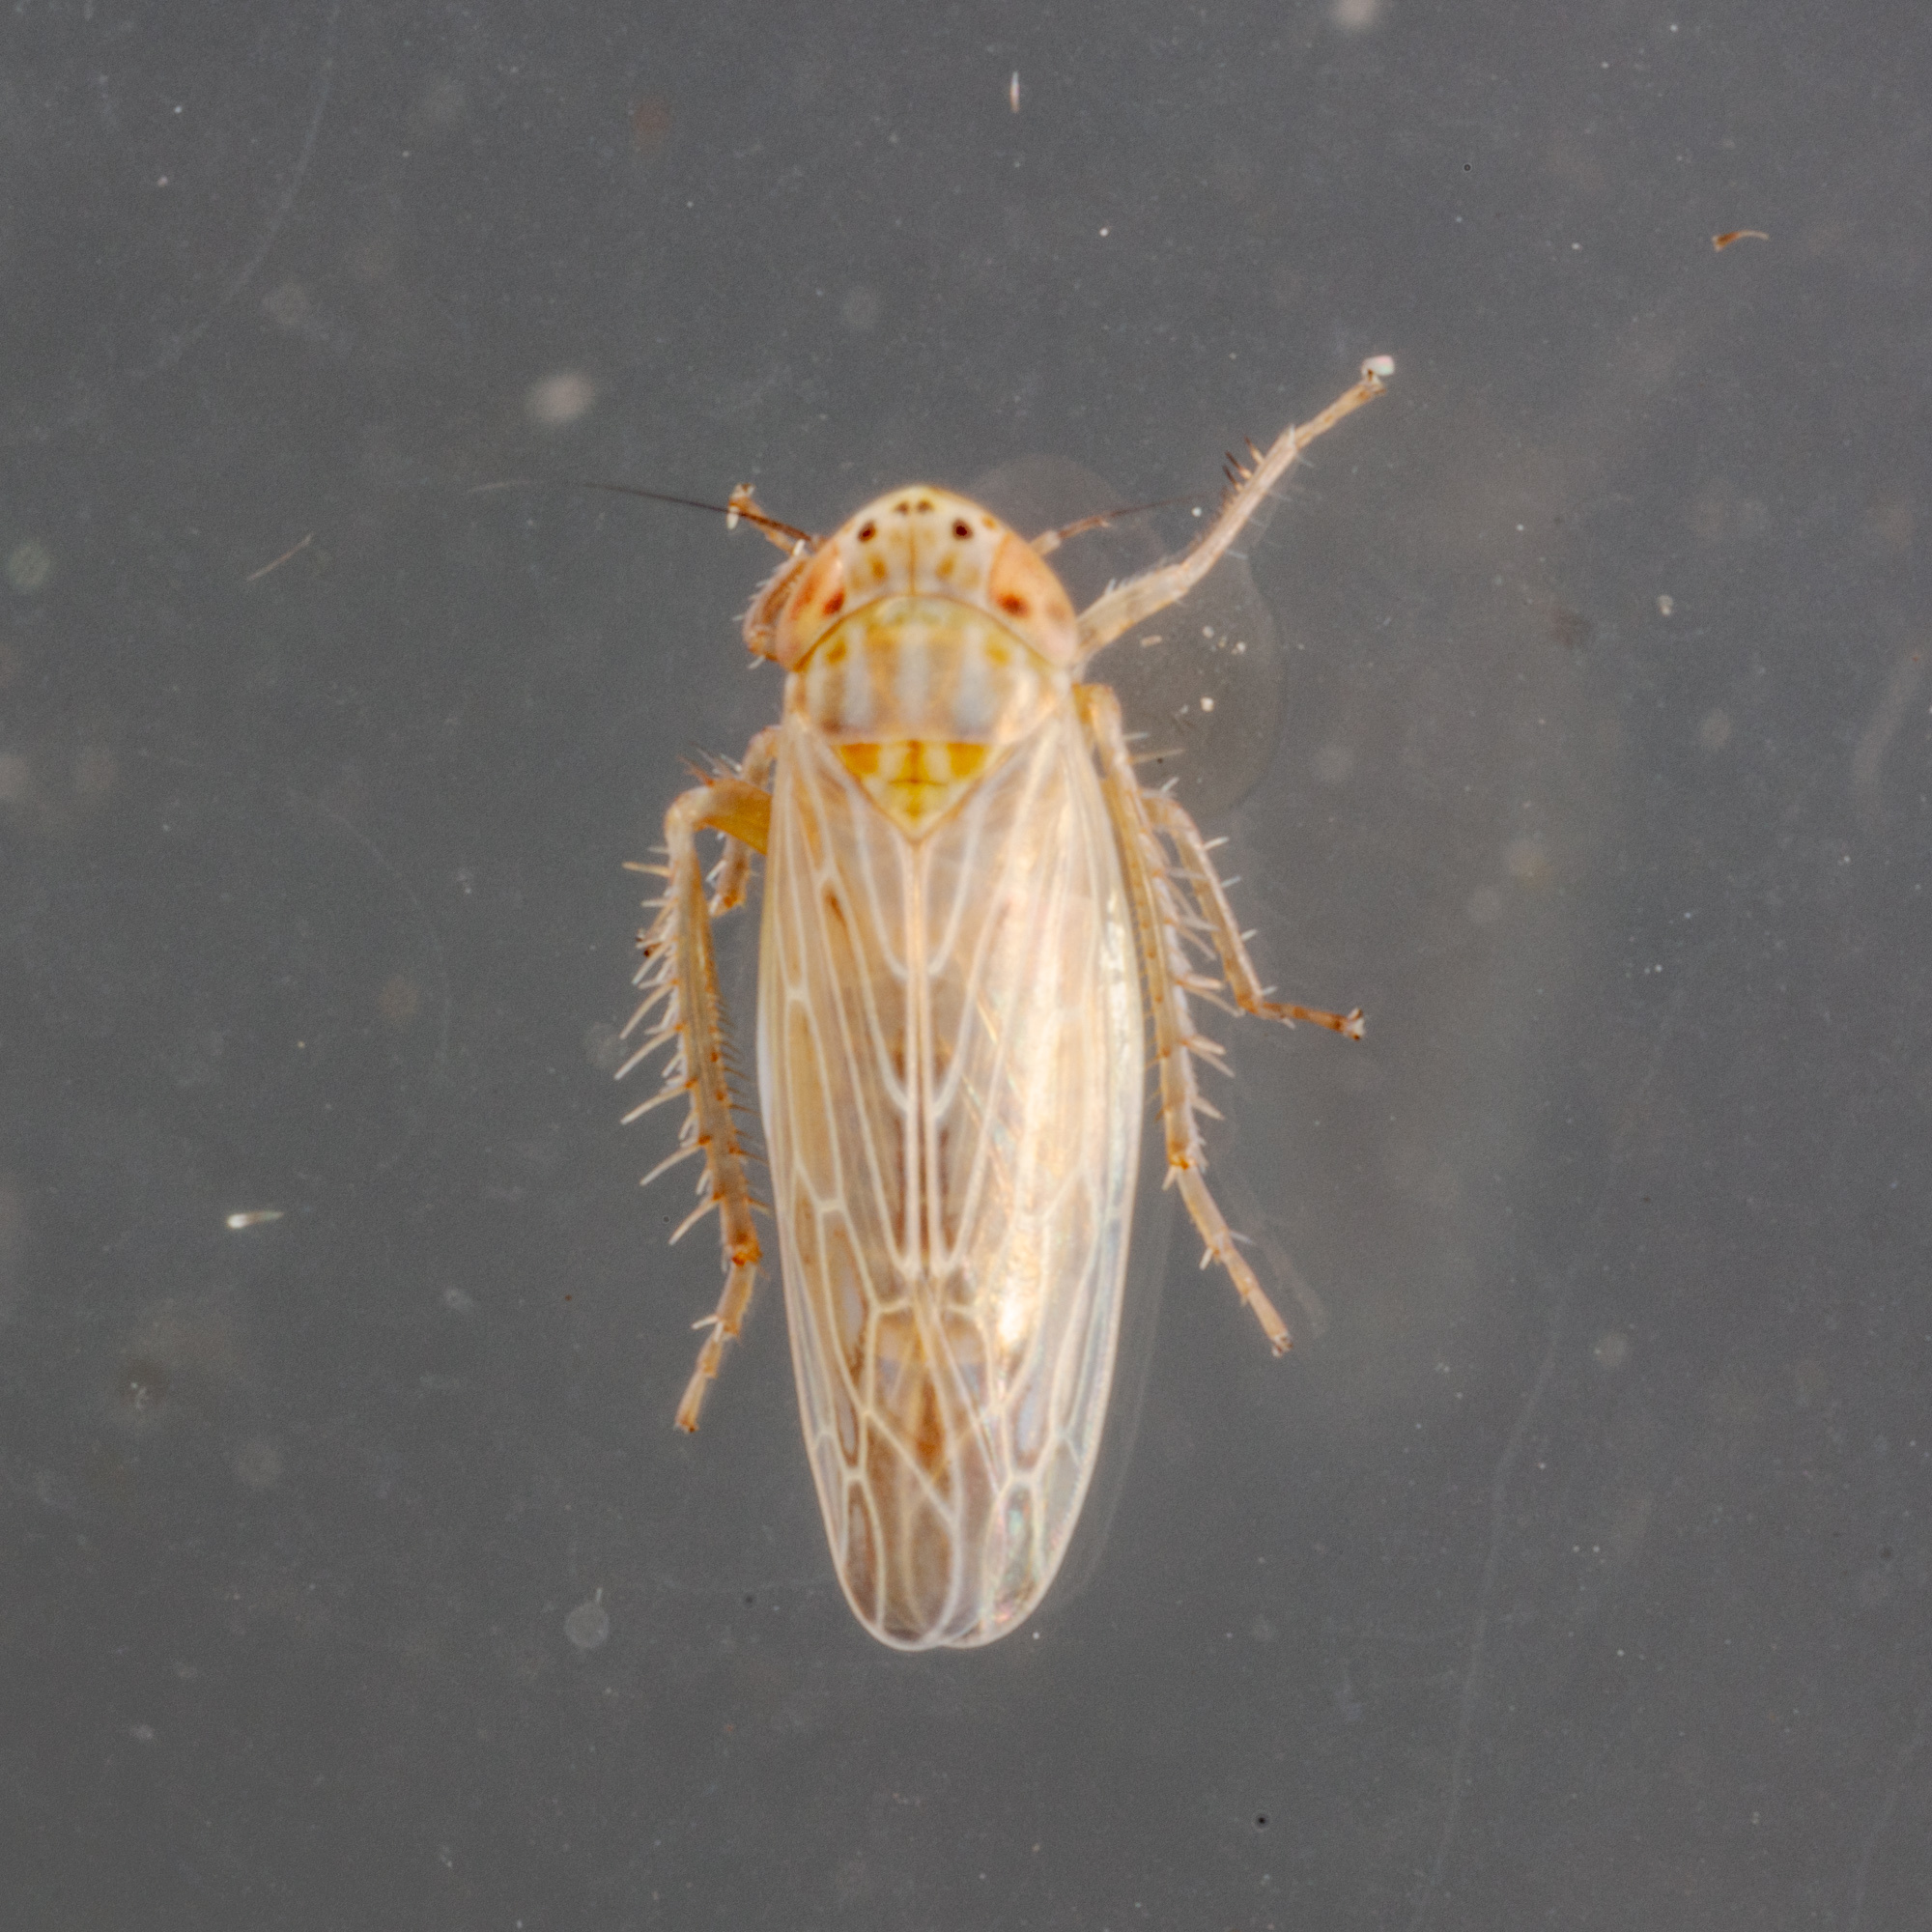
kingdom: Animalia
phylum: Arthropoda
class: Insecta
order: Hemiptera
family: Cicadellidae
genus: Graminella
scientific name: Graminella sonora
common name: Lesser lawn leafhopper
